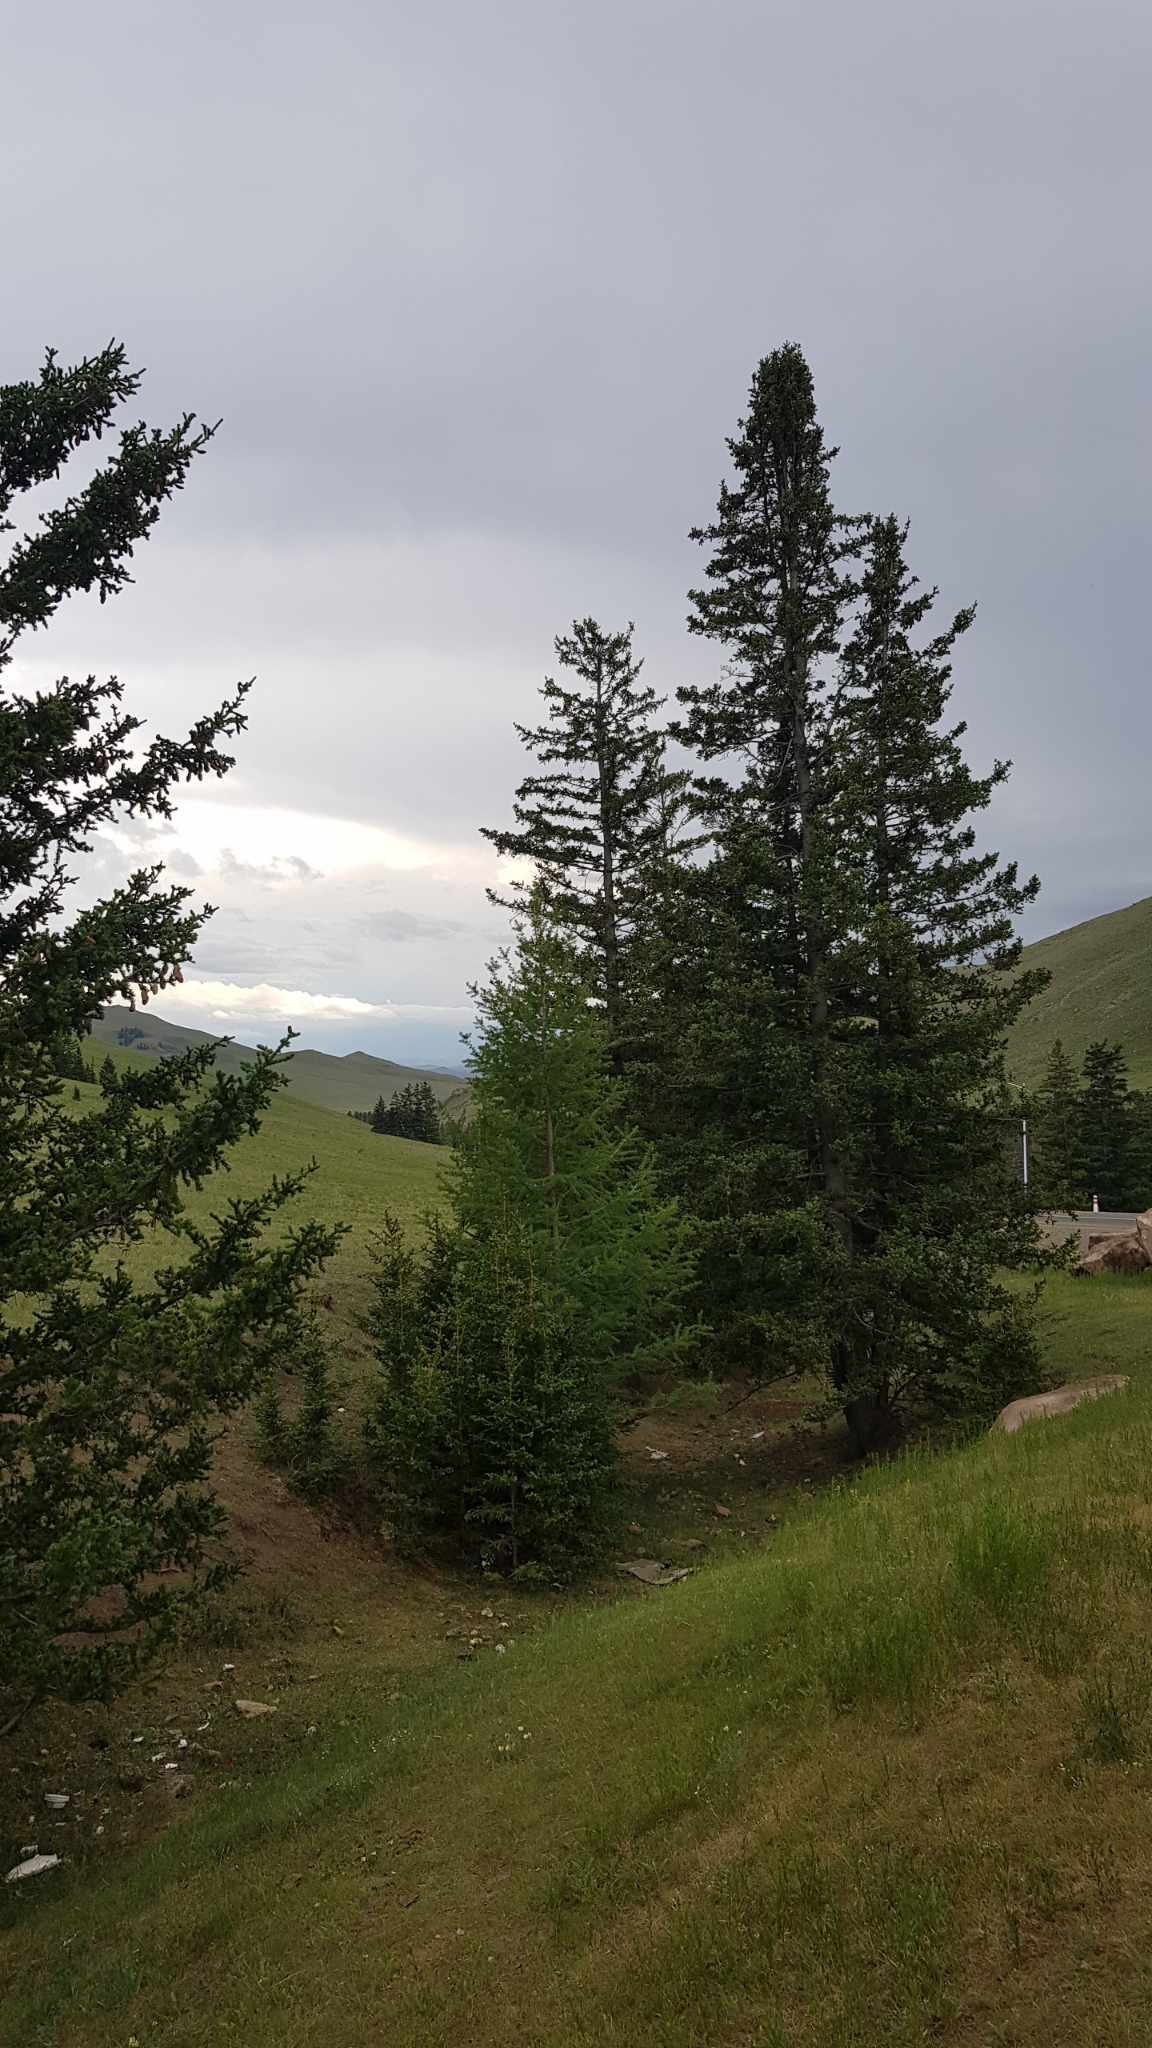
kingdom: Plantae
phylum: Tracheophyta
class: Pinopsida
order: Pinales
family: Pinaceae
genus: Picea
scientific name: Picea obovata
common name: Siberian spruce
